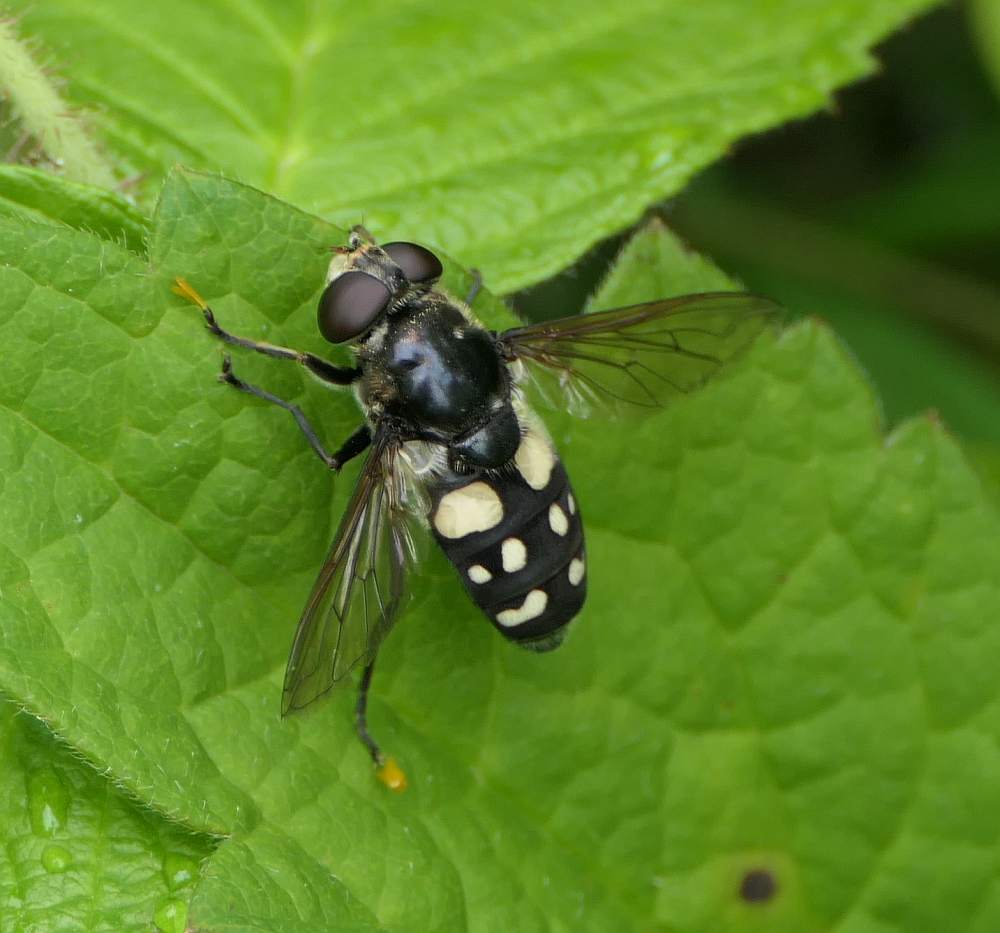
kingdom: Animalia
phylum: Arthropoda
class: Insecta
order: Diptera
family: Syrphidae
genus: Sericomyia
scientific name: Sericomyia lata
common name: White-spotted pond fly
